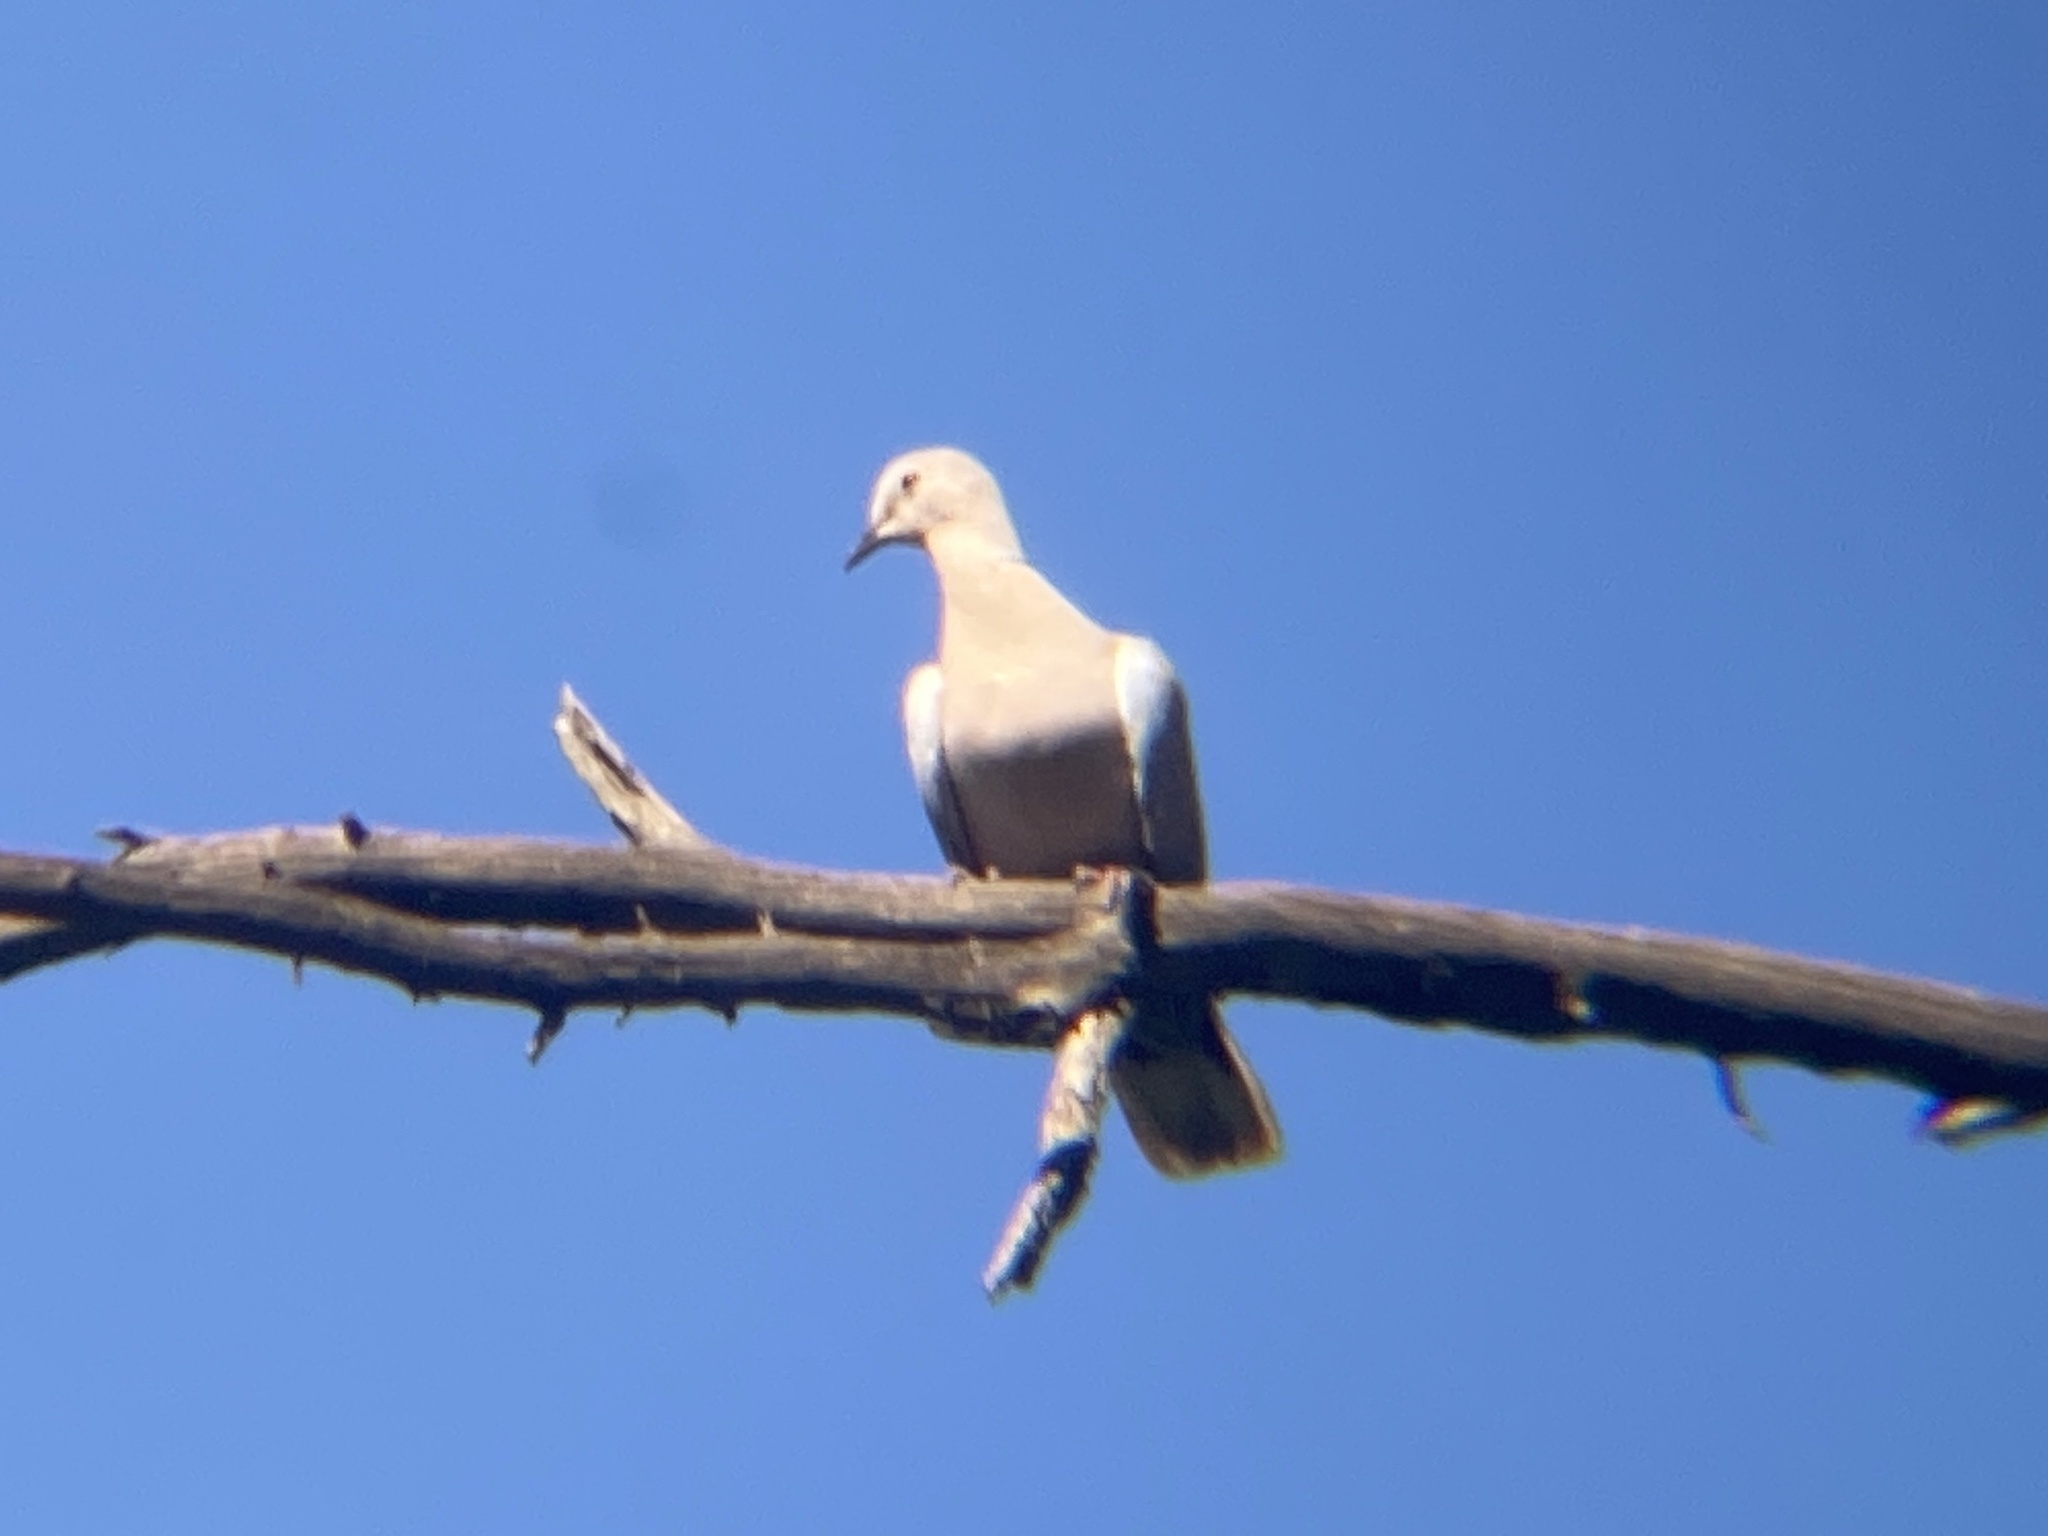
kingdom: Animalia
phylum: Chordata
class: Aves
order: Columbiformes
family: Columbidae
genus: Streptopelia
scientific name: Streptopelia decaocto
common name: Eurasian collared dove
